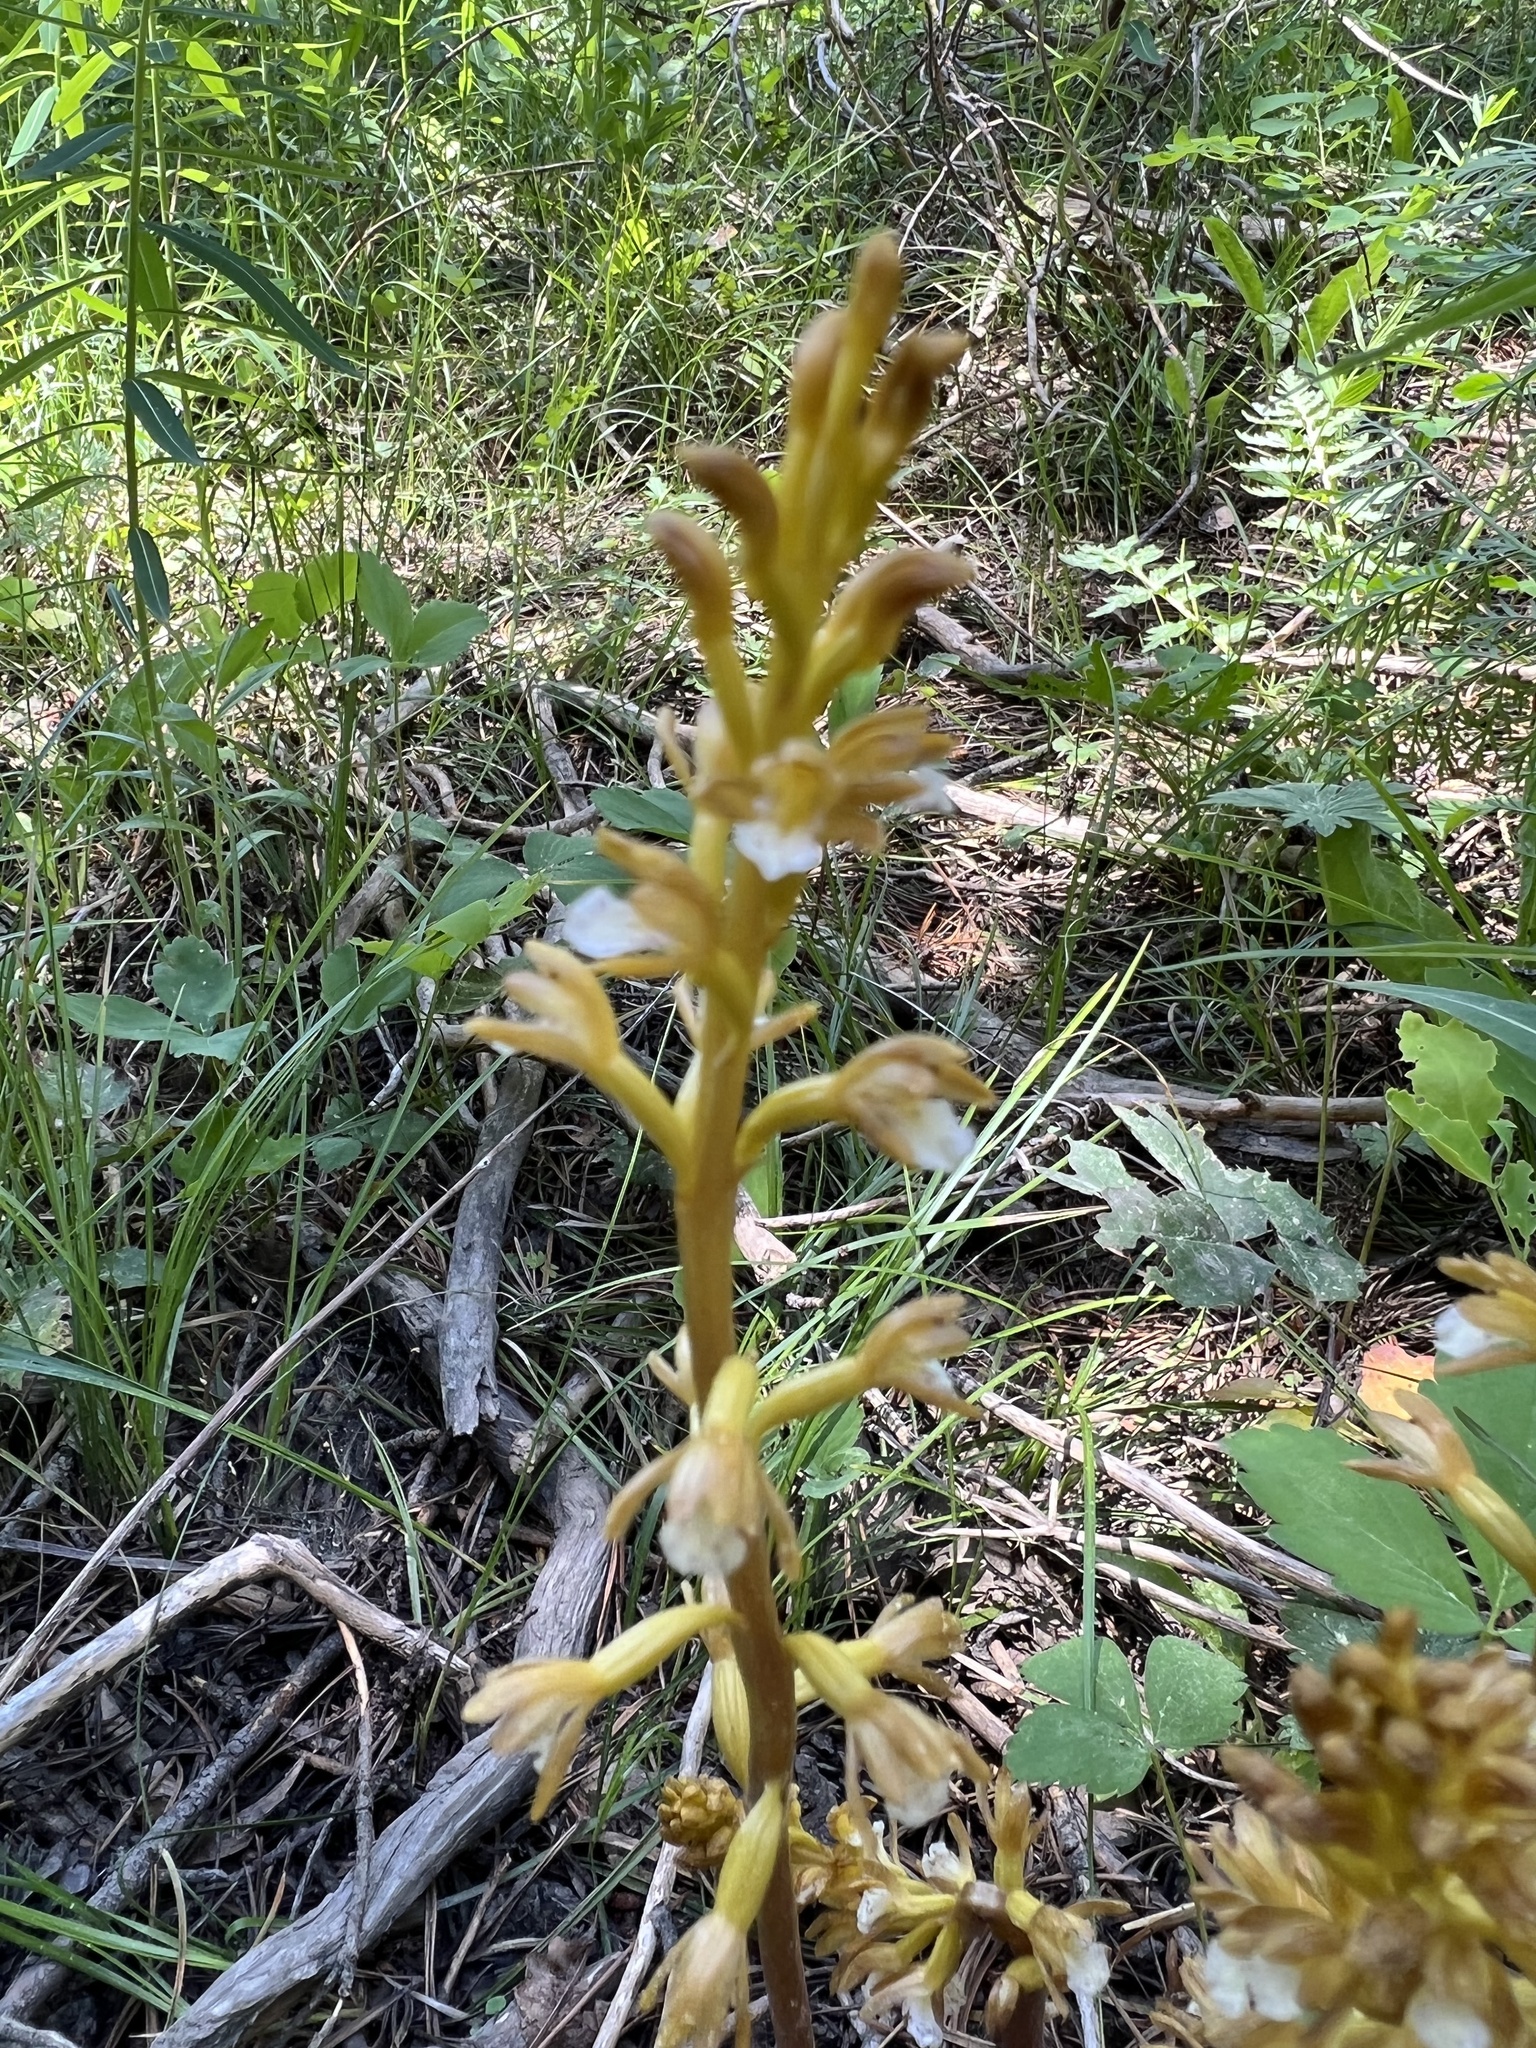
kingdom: Plantae
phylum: Tracheophyta
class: Liliopsida
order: Asparagales
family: Orchidaceae
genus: Corallorhiza
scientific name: Corallorhiza maculata
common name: Spotted coralroot
